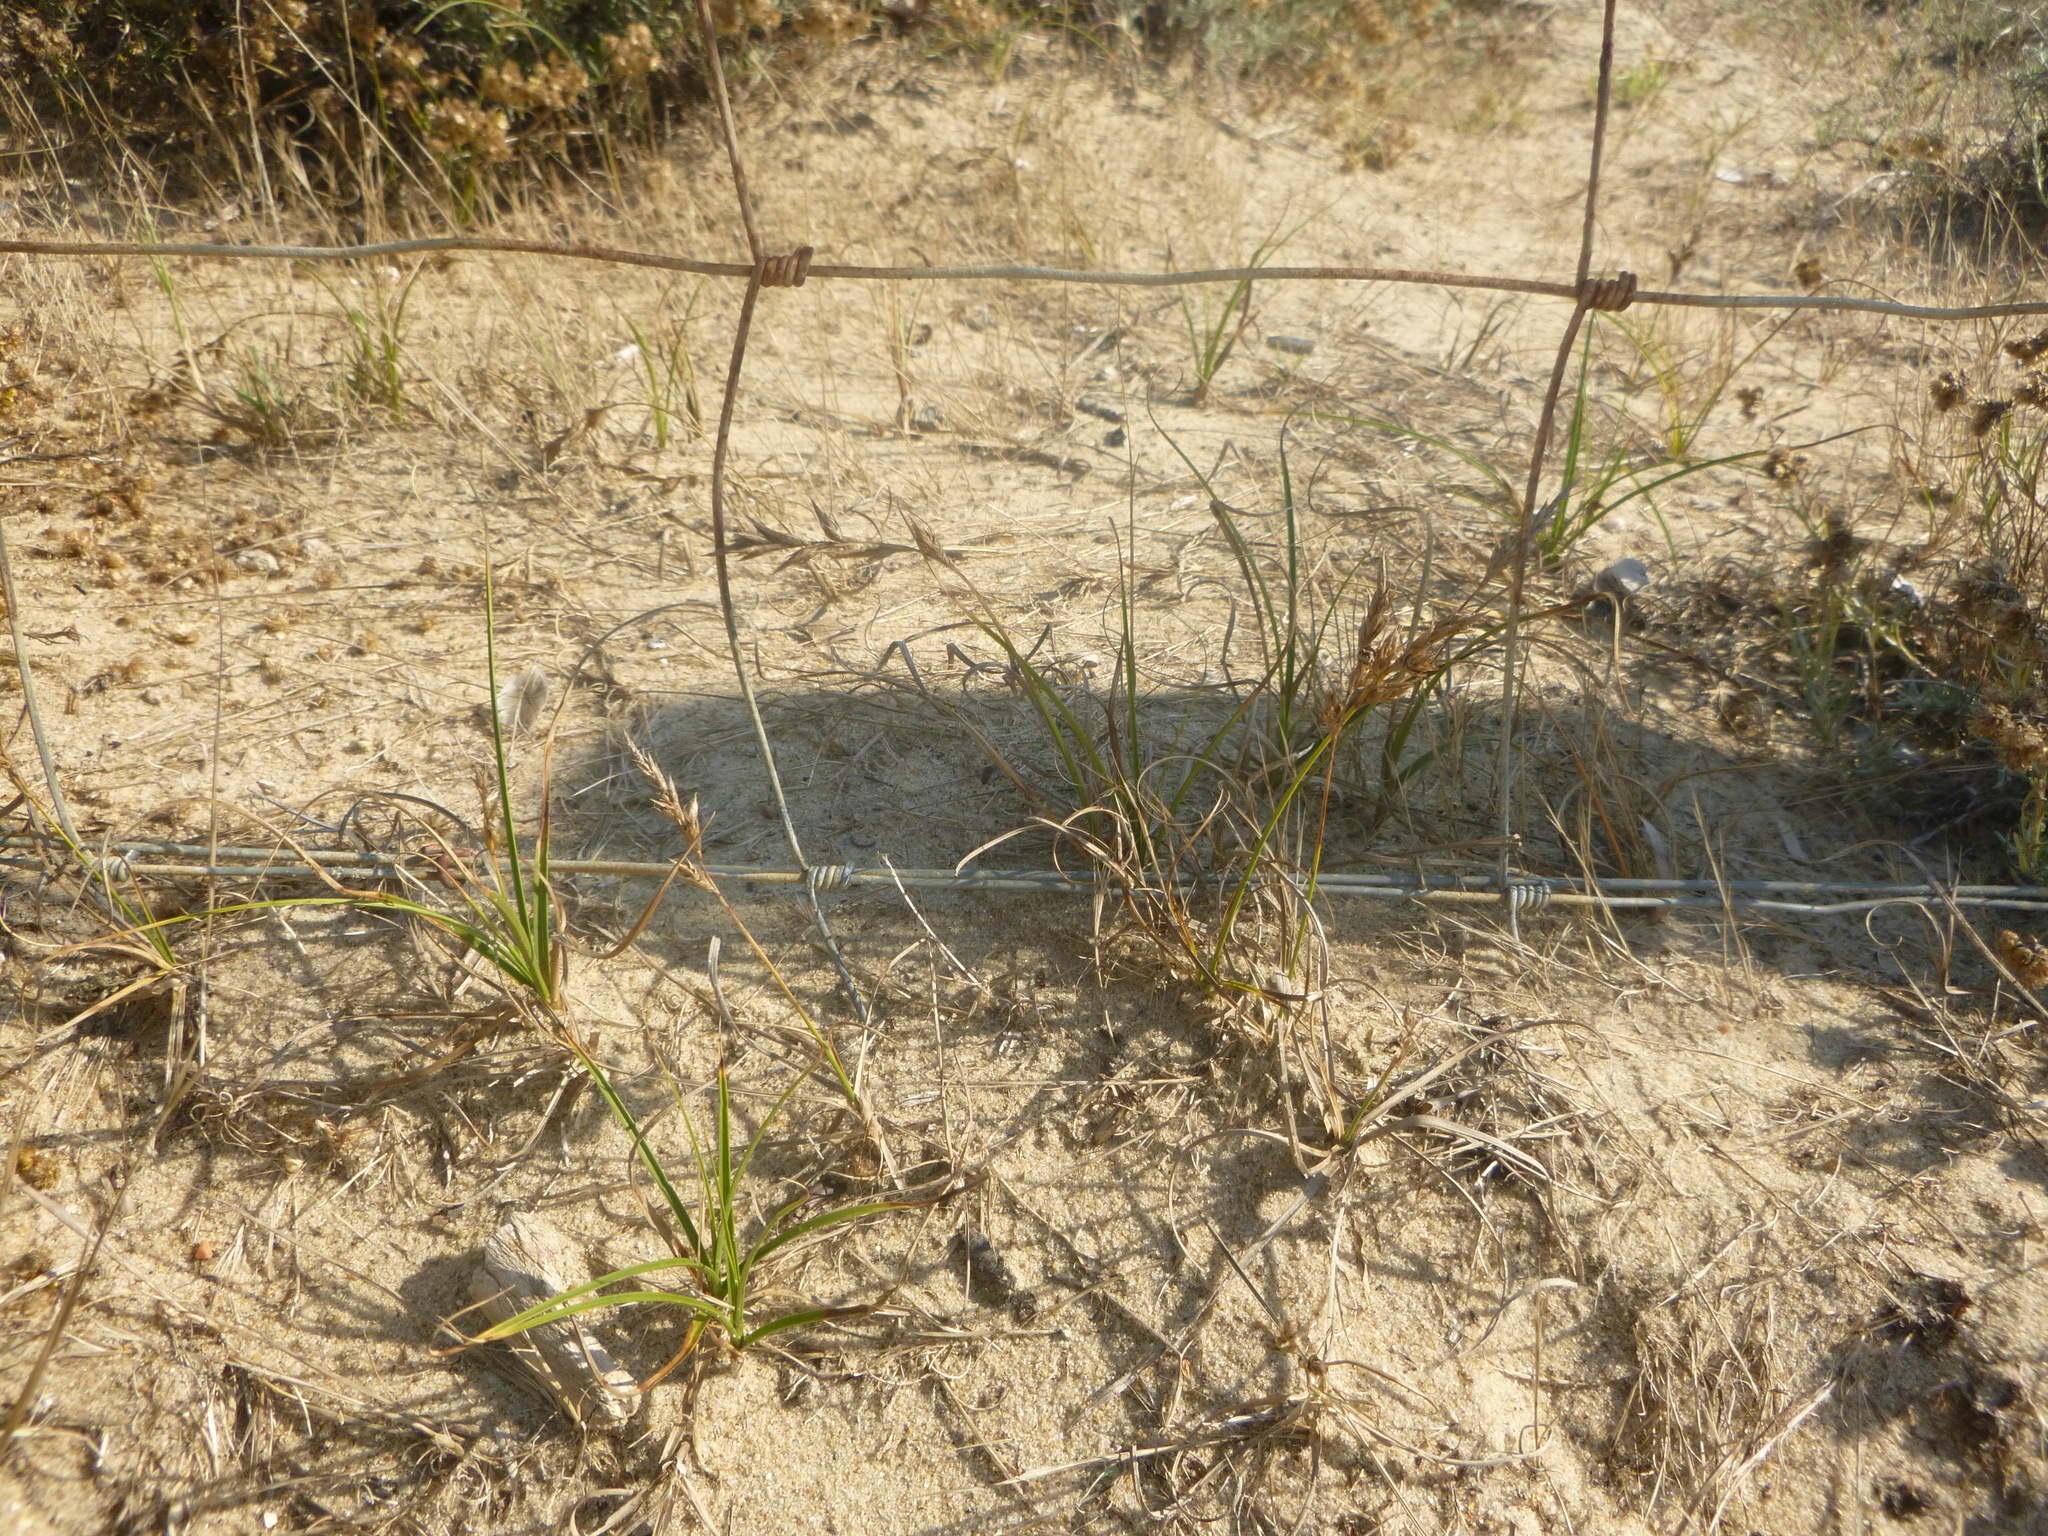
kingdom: Plantae
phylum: Tracheophyta
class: Liliopsida
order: Poales
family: Cyperaceae
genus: Carex
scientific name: Carex arenaria
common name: Sand sedge
